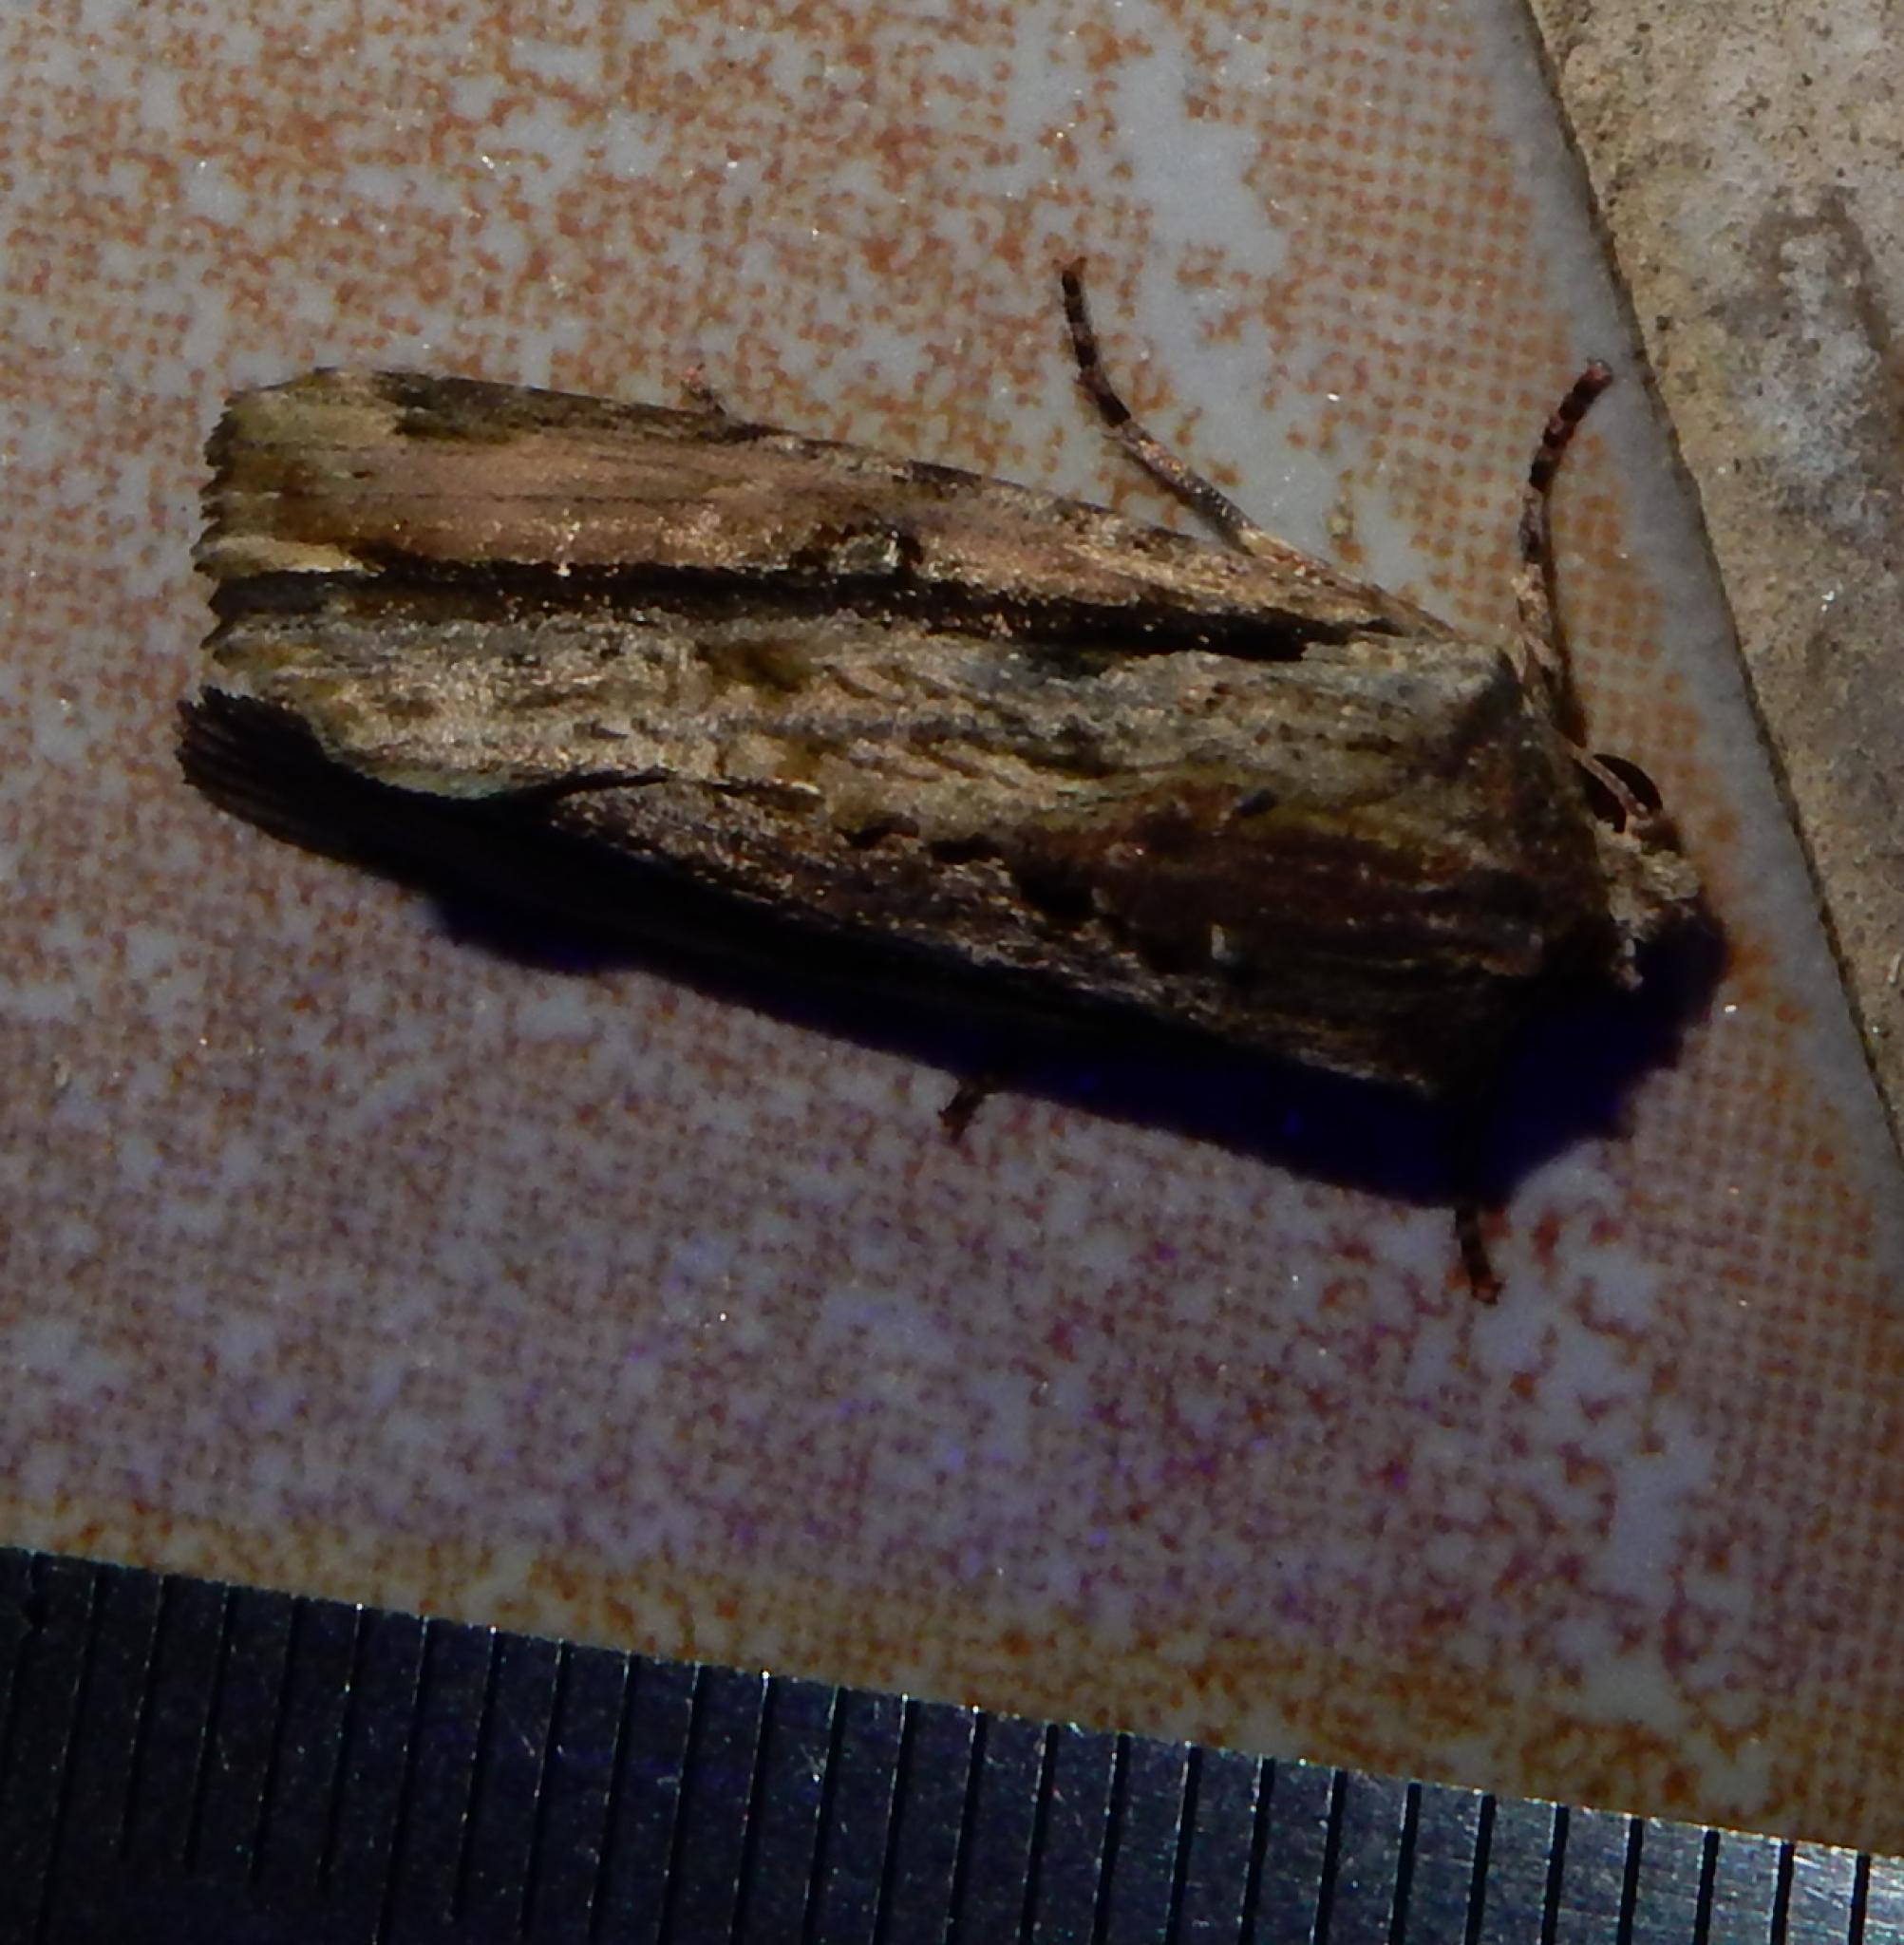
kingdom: Animalia
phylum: Arthropoda
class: Insecta
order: Lepidoptera
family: Noctuidae
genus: Magusa
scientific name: Magusa versicolora
